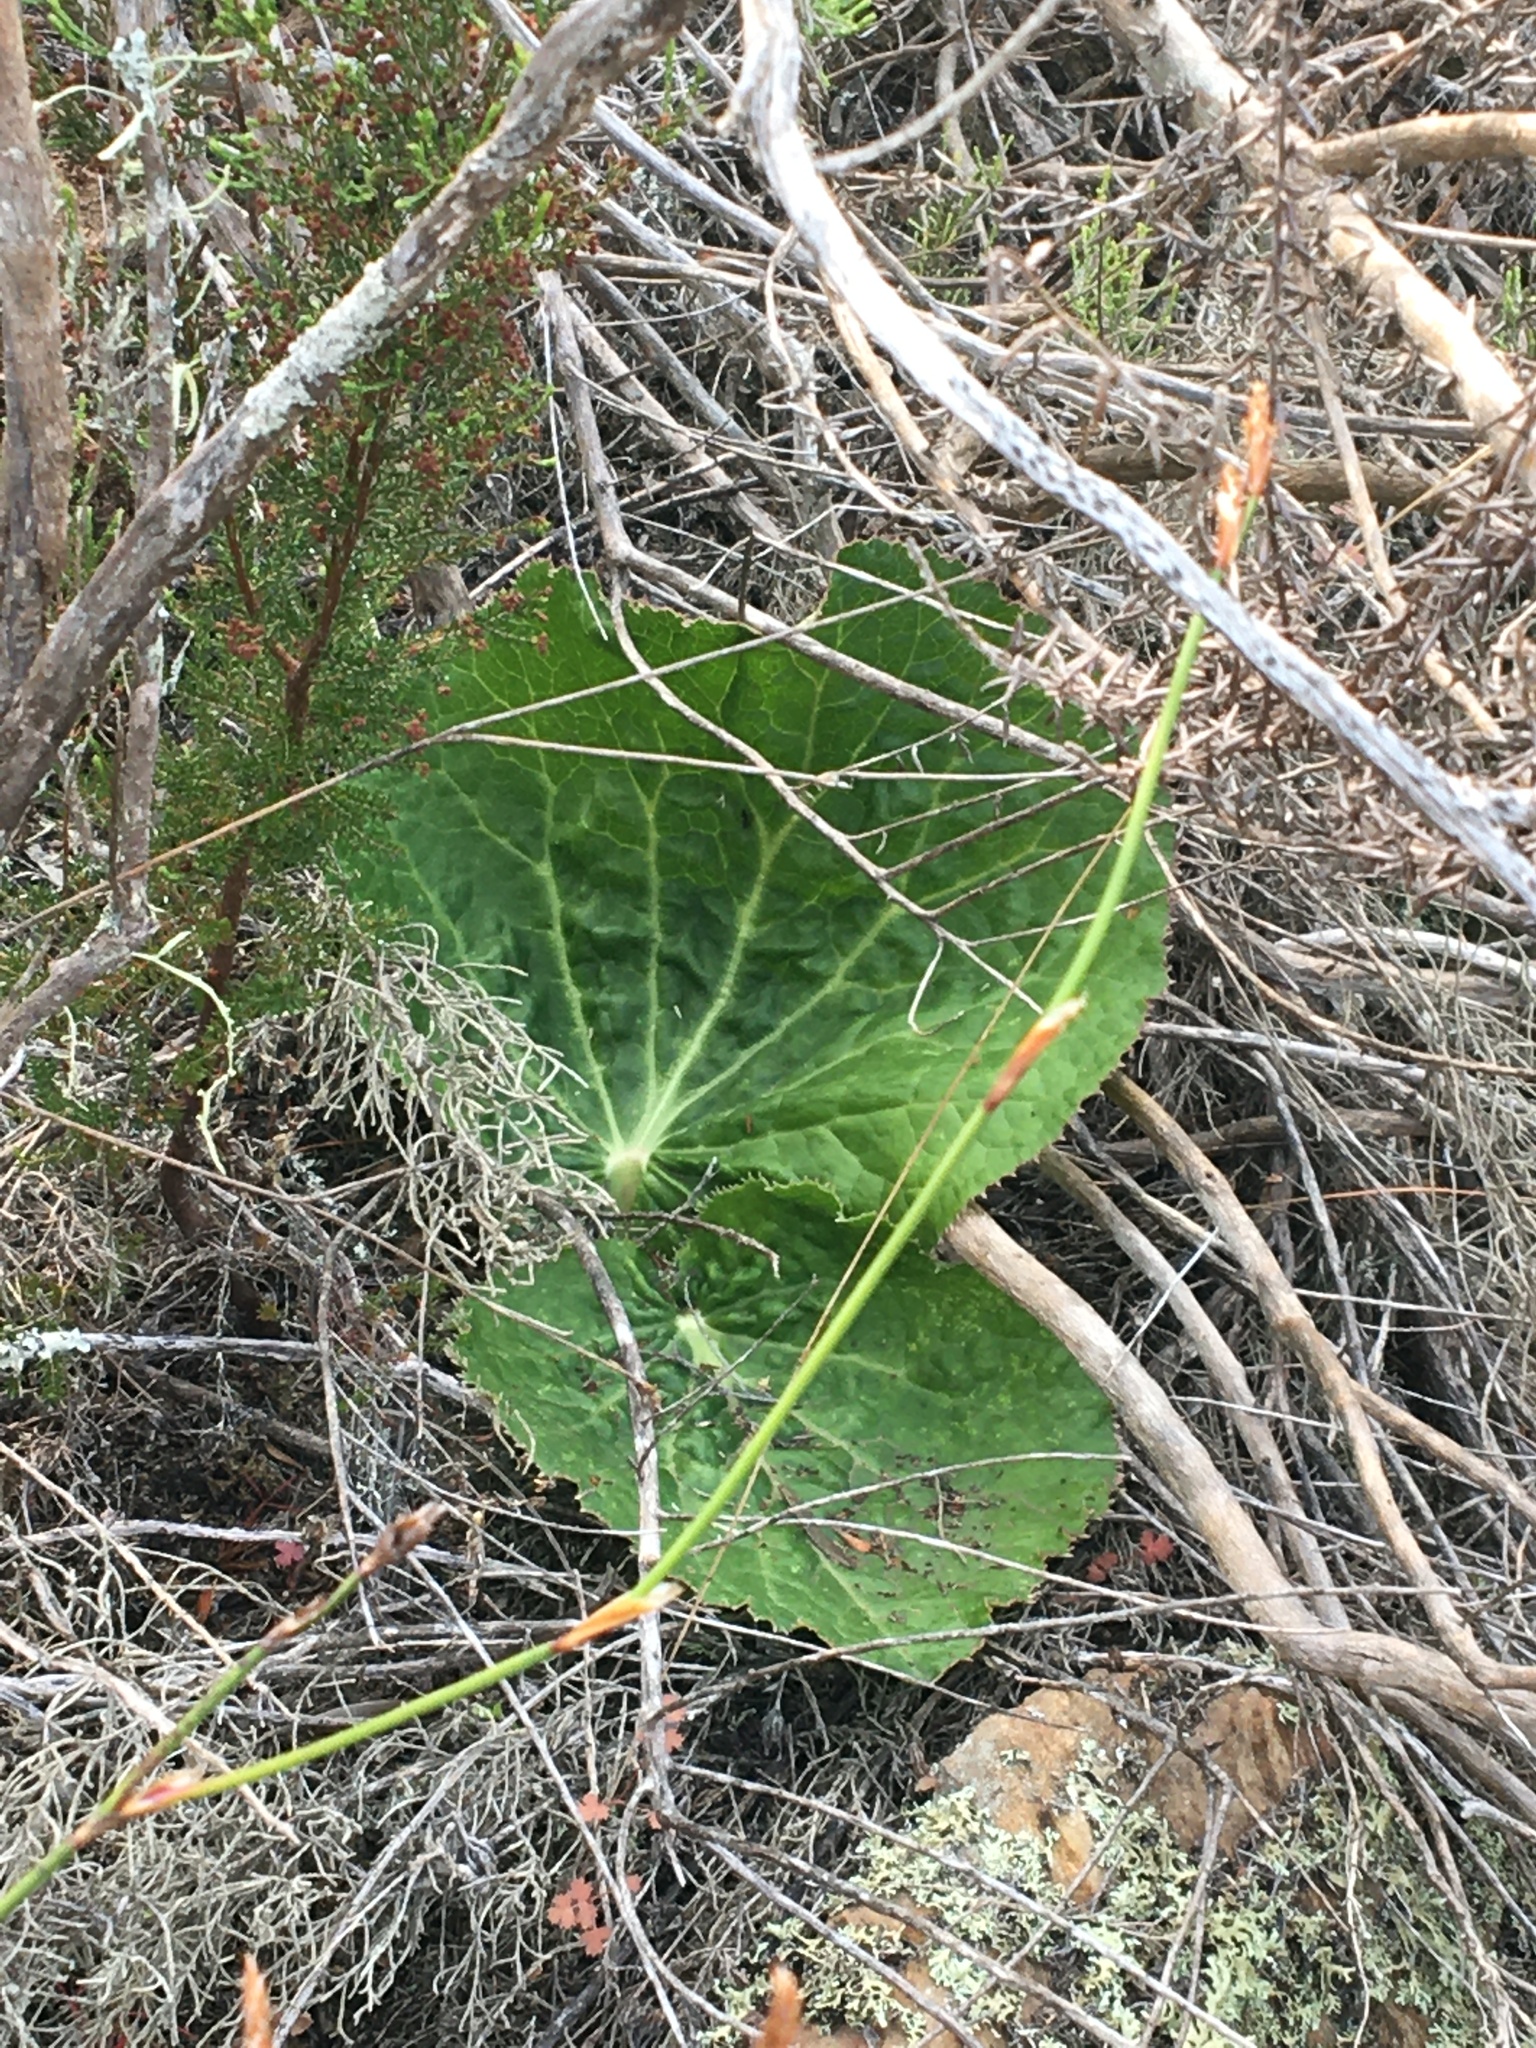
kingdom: Plantae
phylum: Tracheophyta
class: Magnoliopsida
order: Apiales
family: Apiaceae
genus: Lichtensteinia
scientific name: Lichtensteinia latifolia
